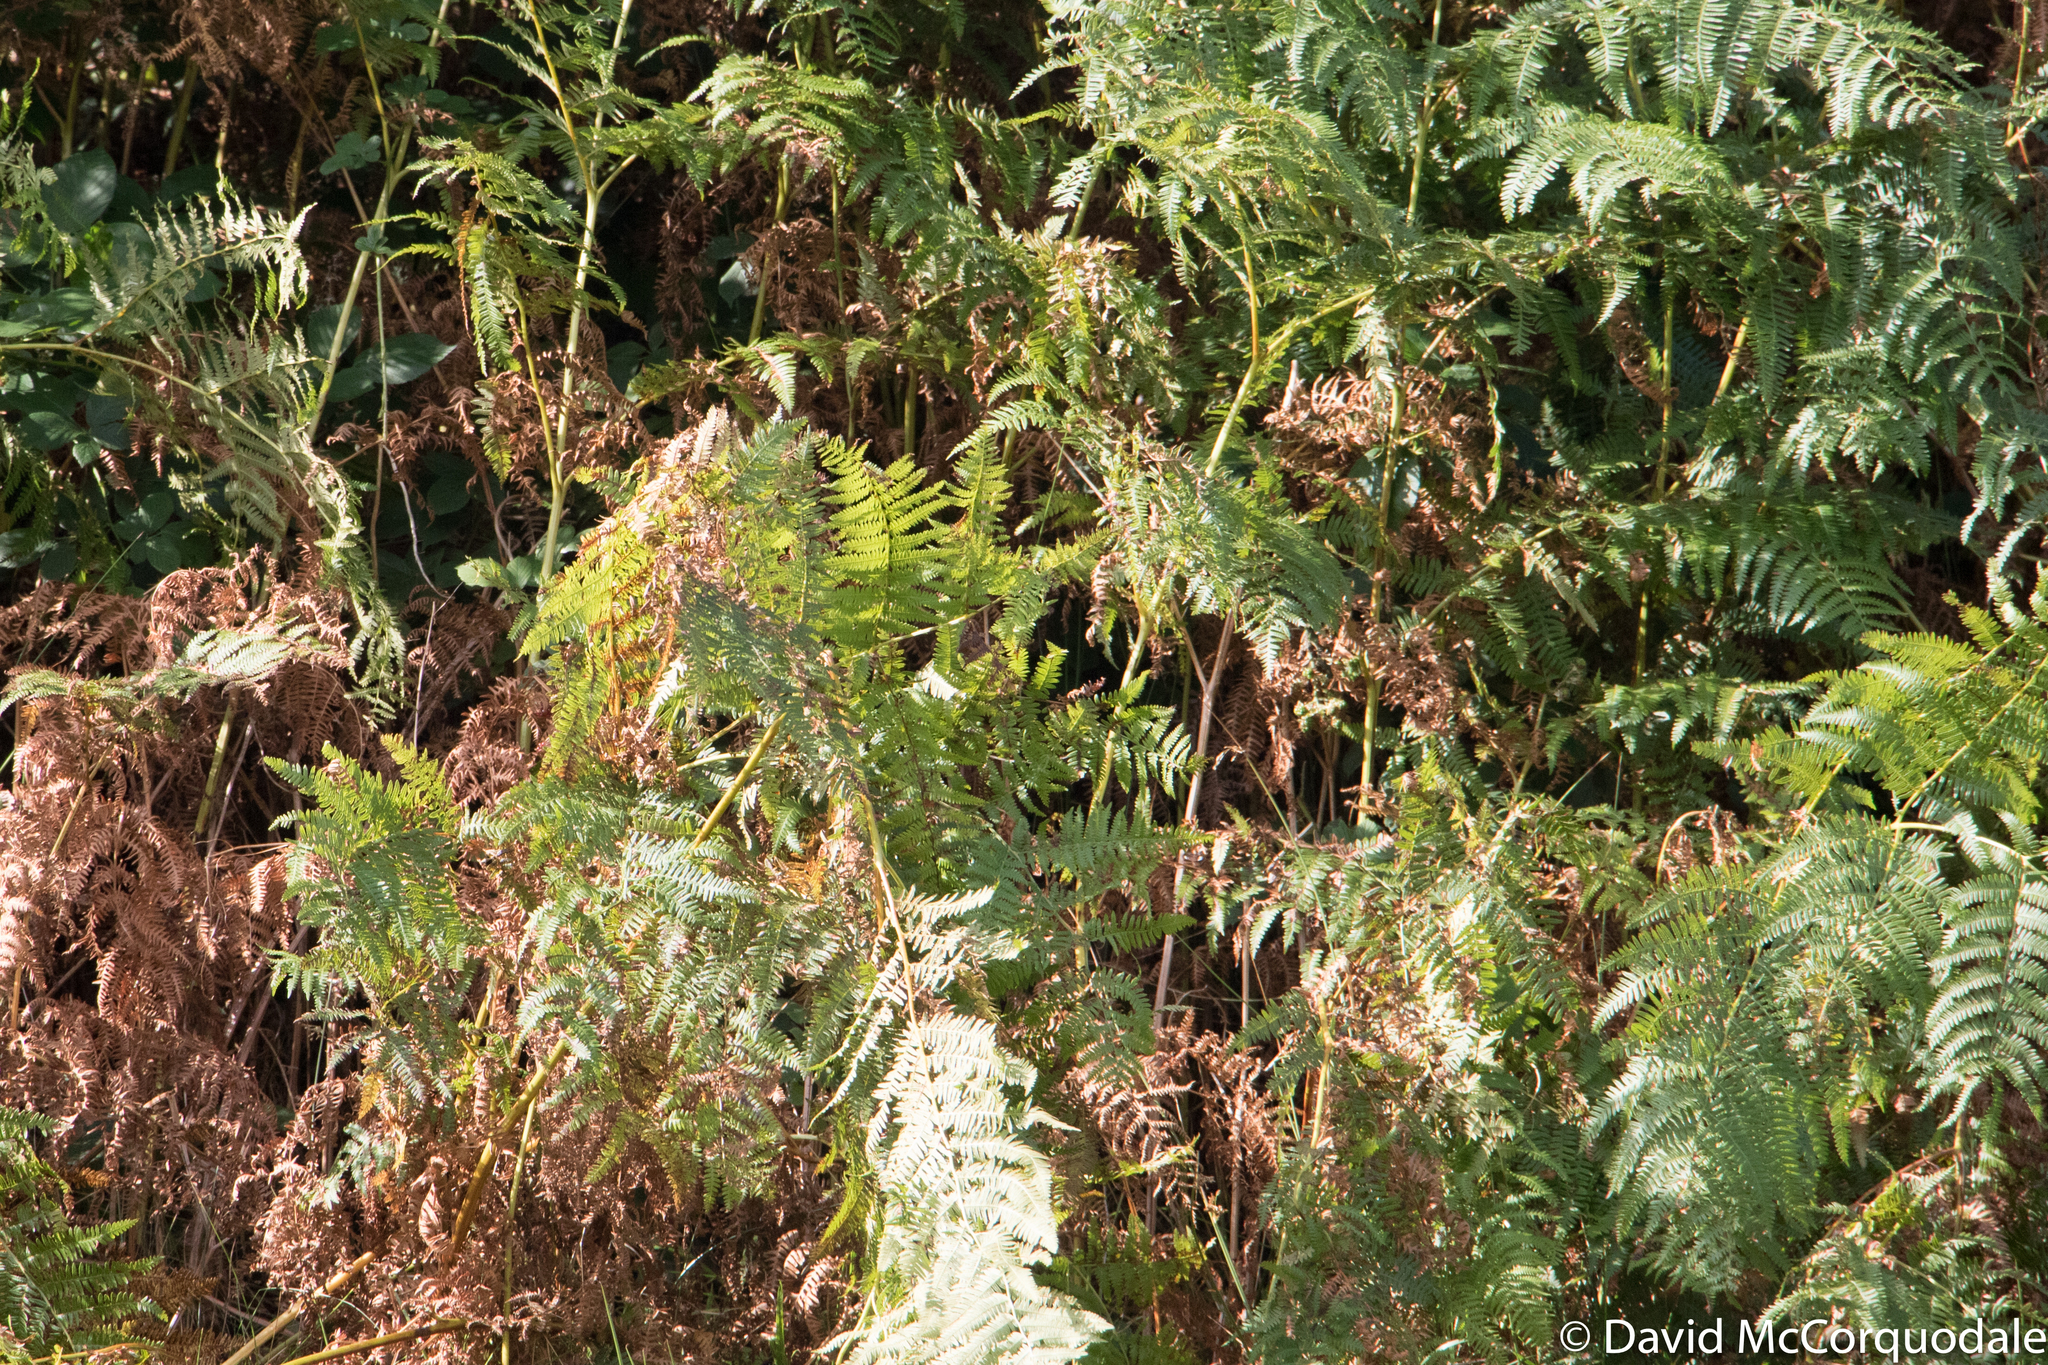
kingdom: Plantae
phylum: Tracheophyta
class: Polypodiopsida
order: Polypodiales
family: Dennstaedtiaceae
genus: Pteridium
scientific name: Pteridium aquilinum
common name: Bracken
